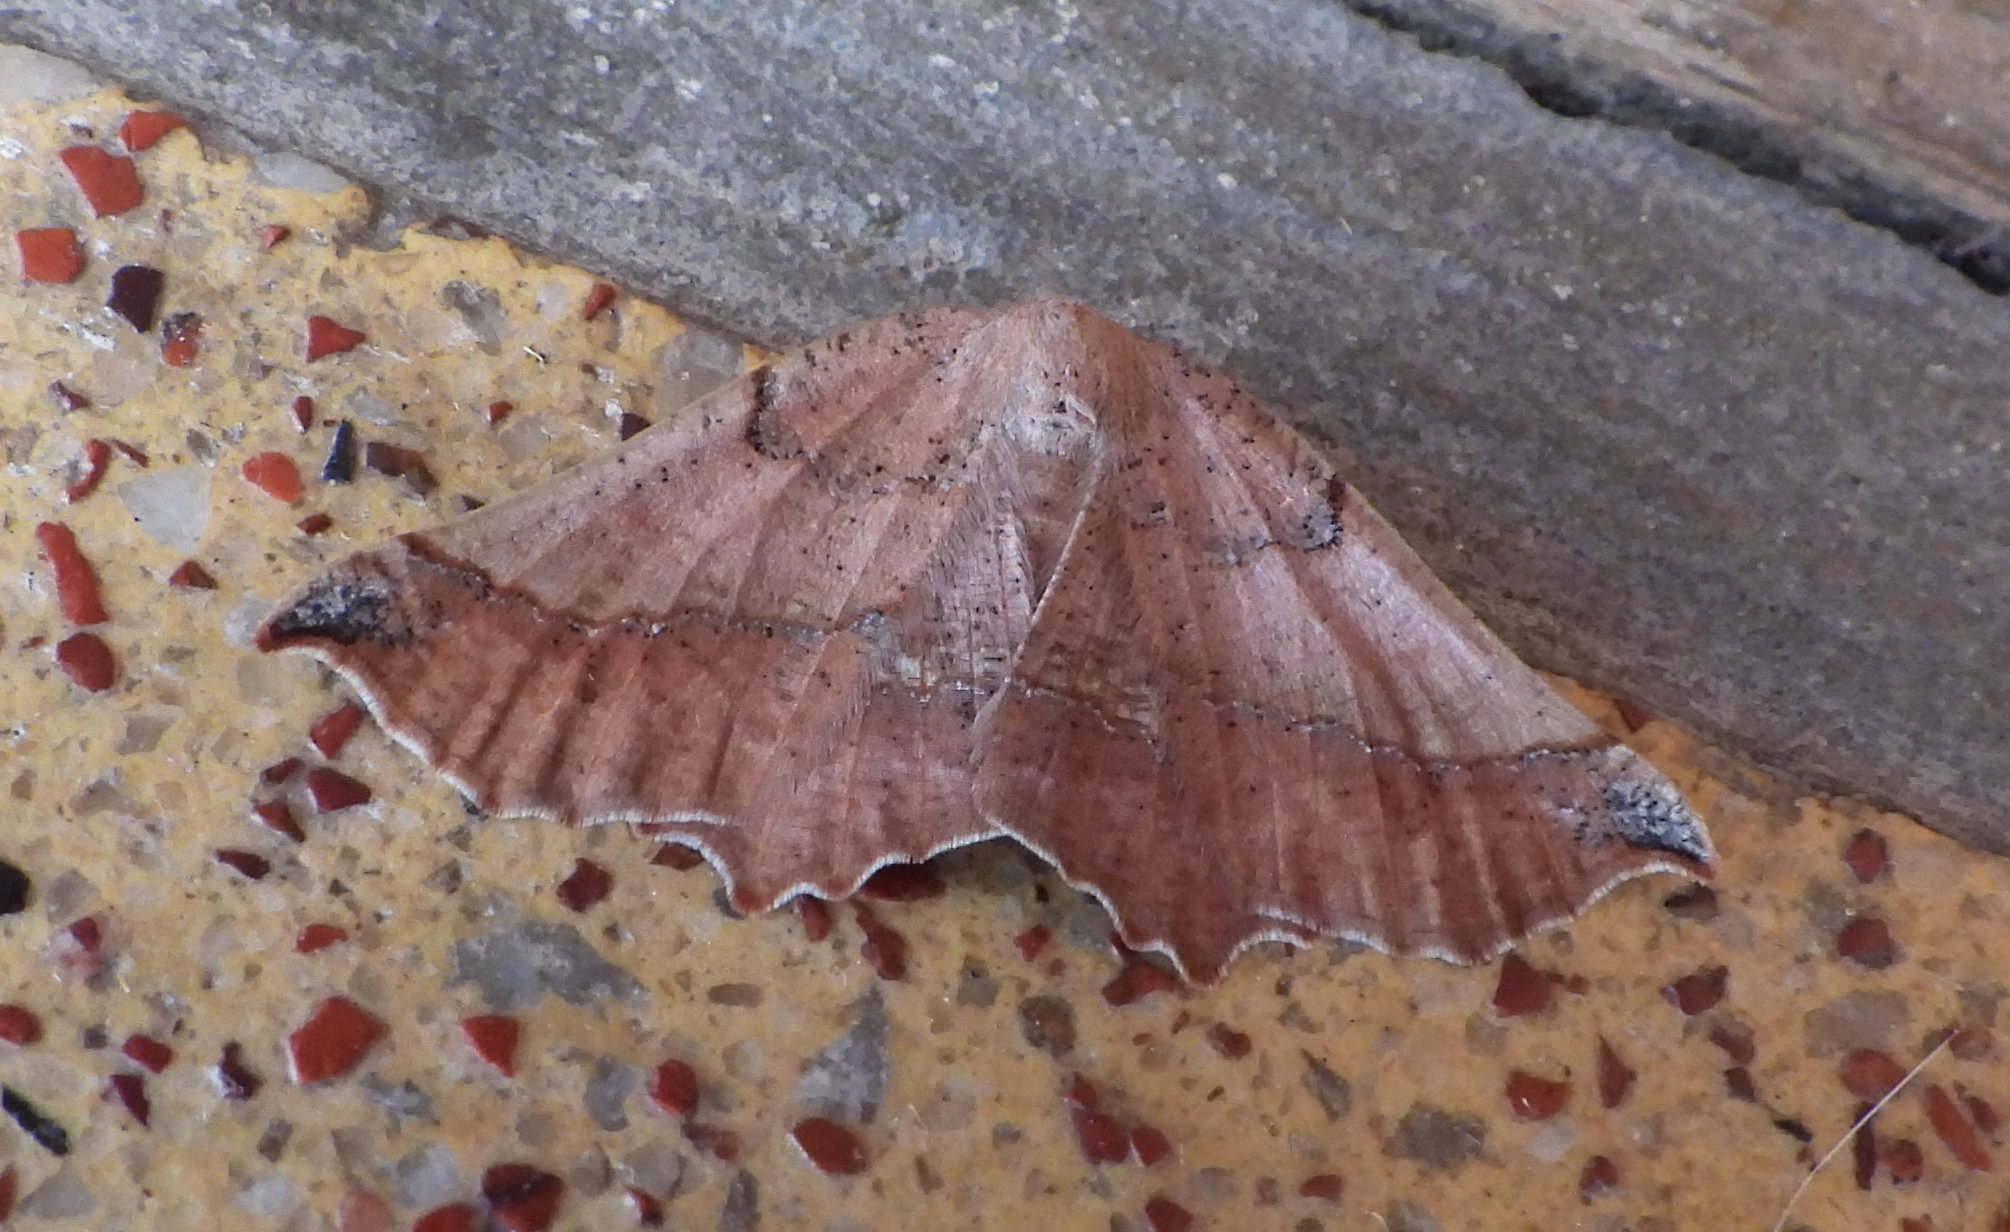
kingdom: Animalia
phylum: Arthropoda
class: Insecta
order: Lepidoptera
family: Geometridae
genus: Drepanogynis
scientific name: Drepanogynis mixtaria
